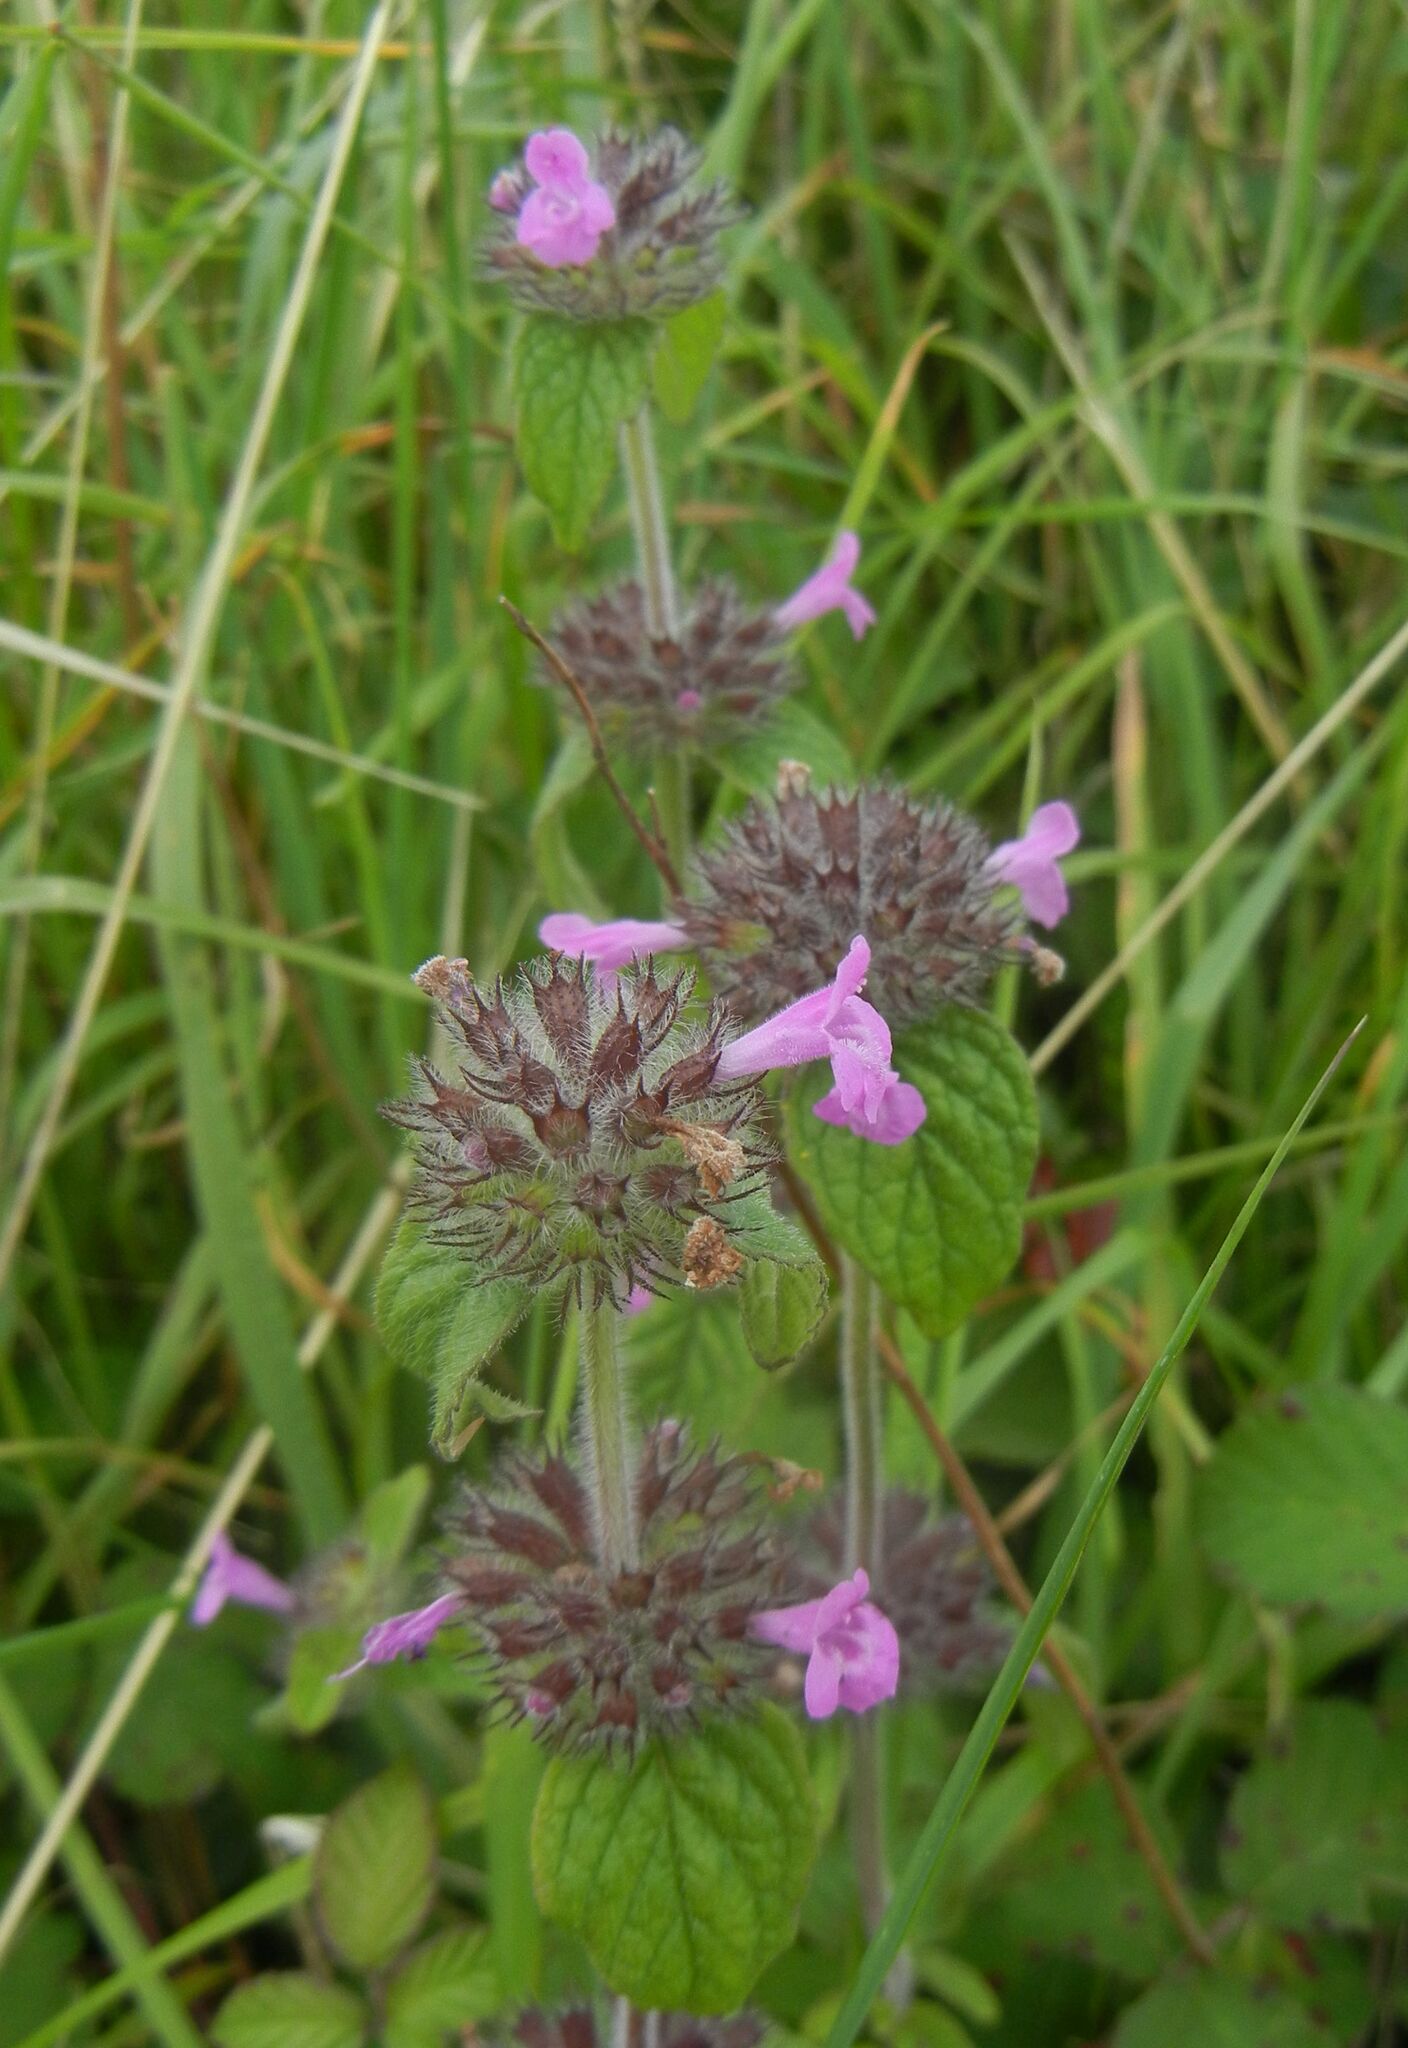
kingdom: Plantae
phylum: Tracheophyta
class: Magnoliopsida
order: Lamiales
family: Lamiaceae
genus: Clinopodium
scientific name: Clinopodium vulgare
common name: Wild basil
